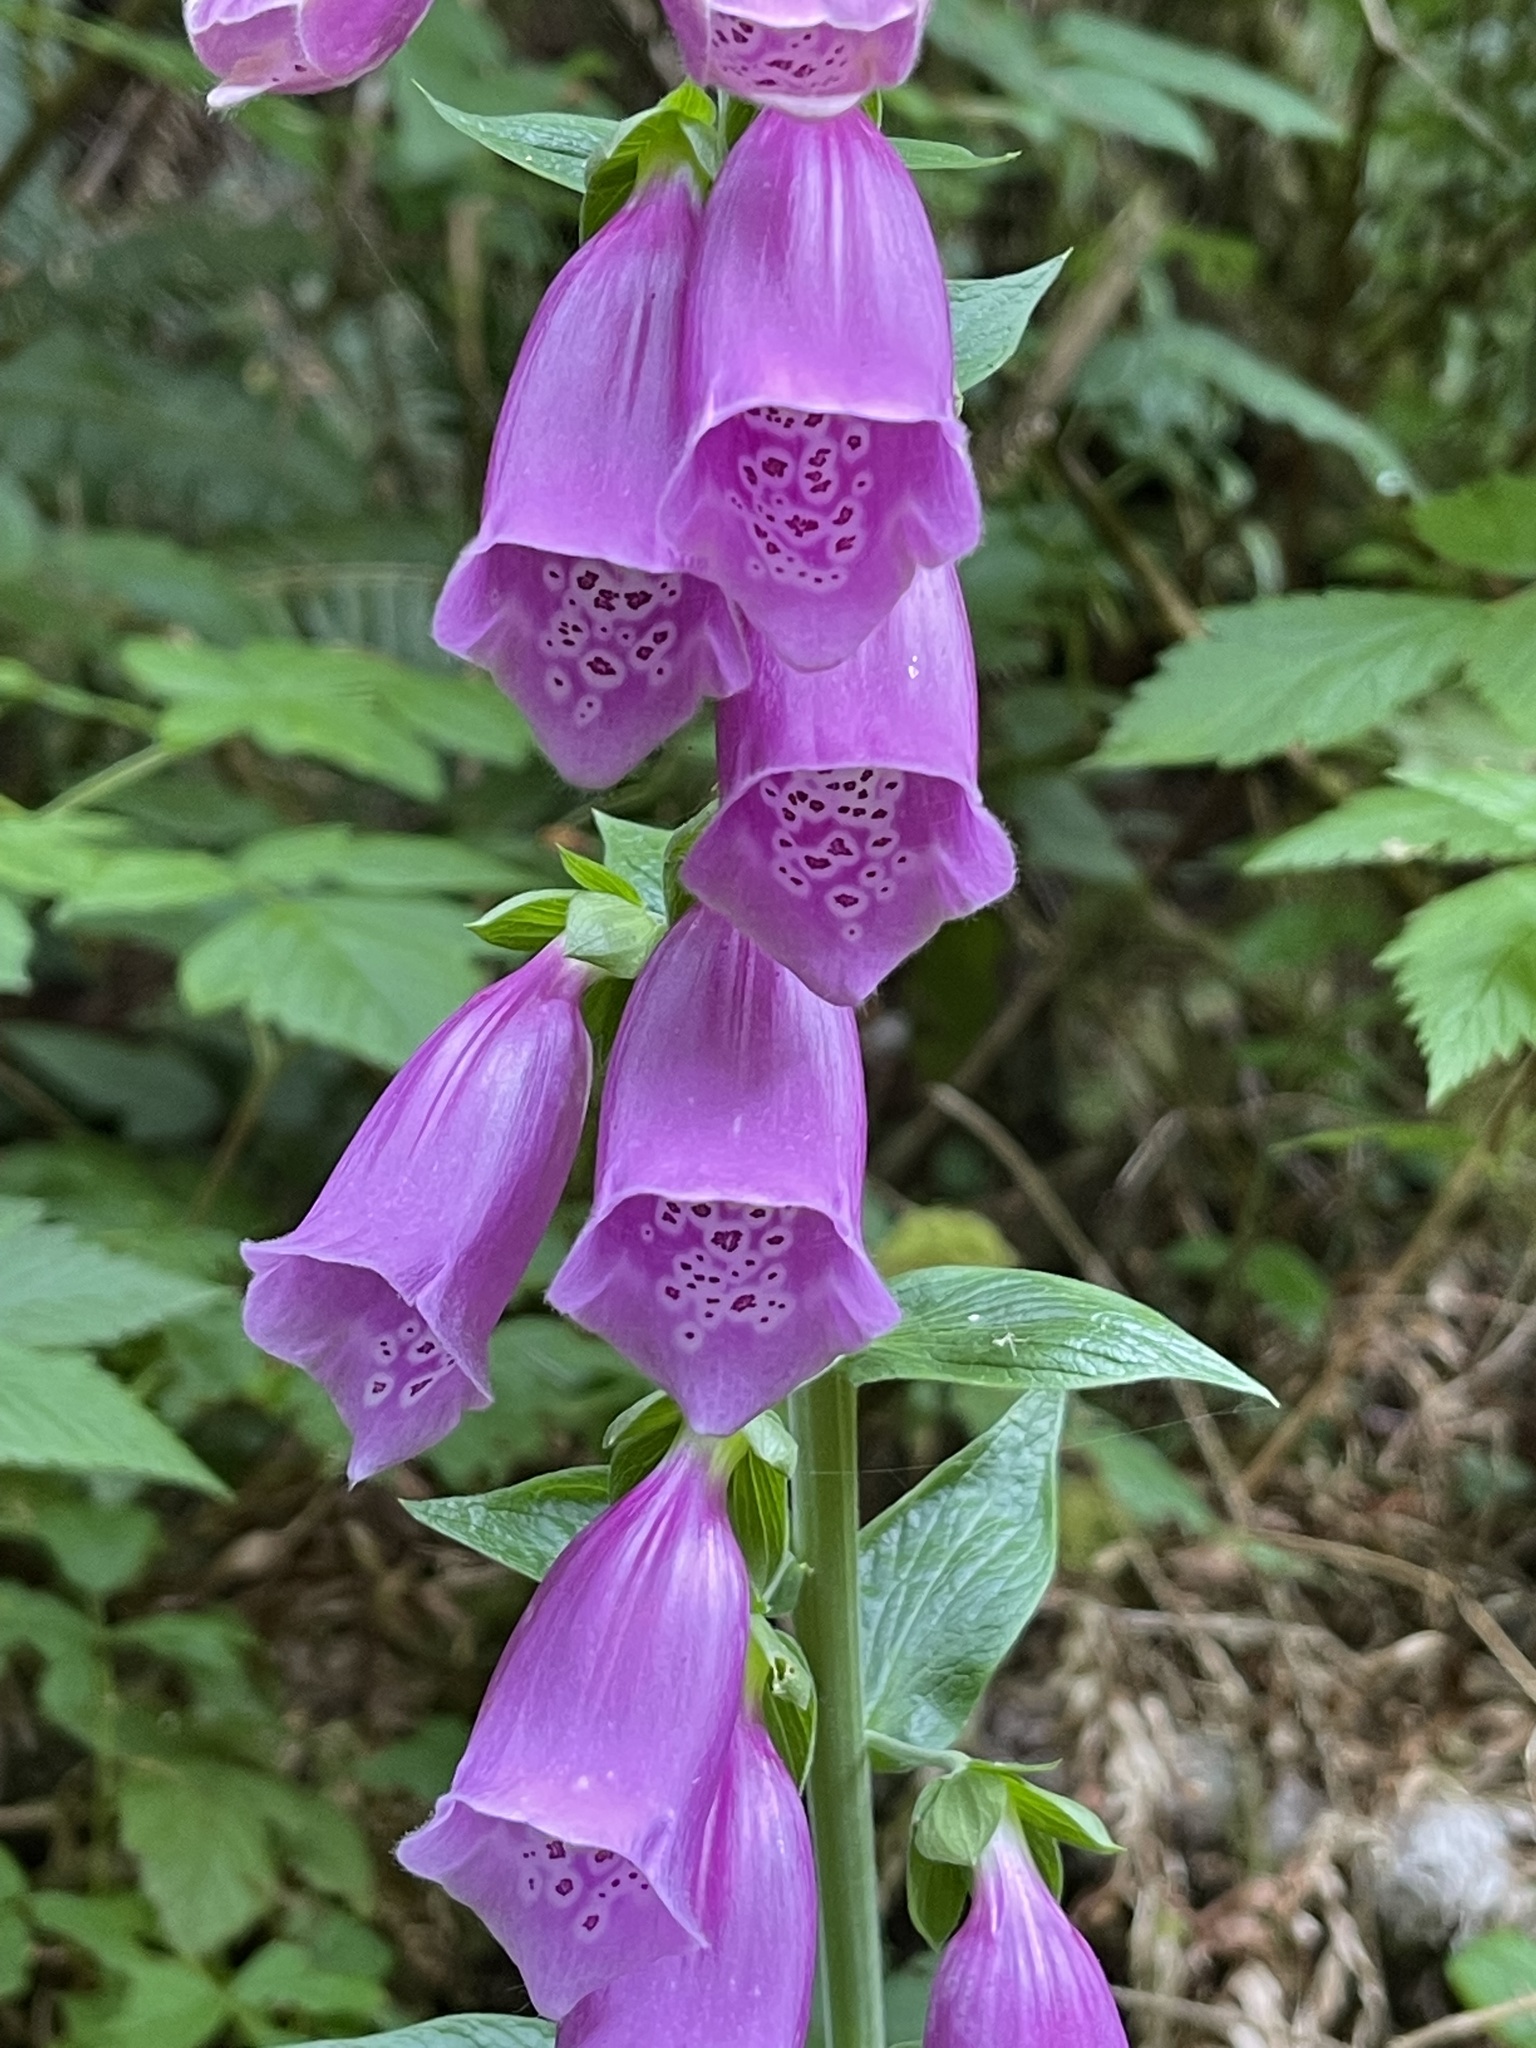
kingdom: Plantae
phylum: Tracheophyta
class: Magnoliopsida
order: Lamiales
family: Plantaginaceae
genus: Digitalis
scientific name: Digitalis purpurea
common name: Foxglove
